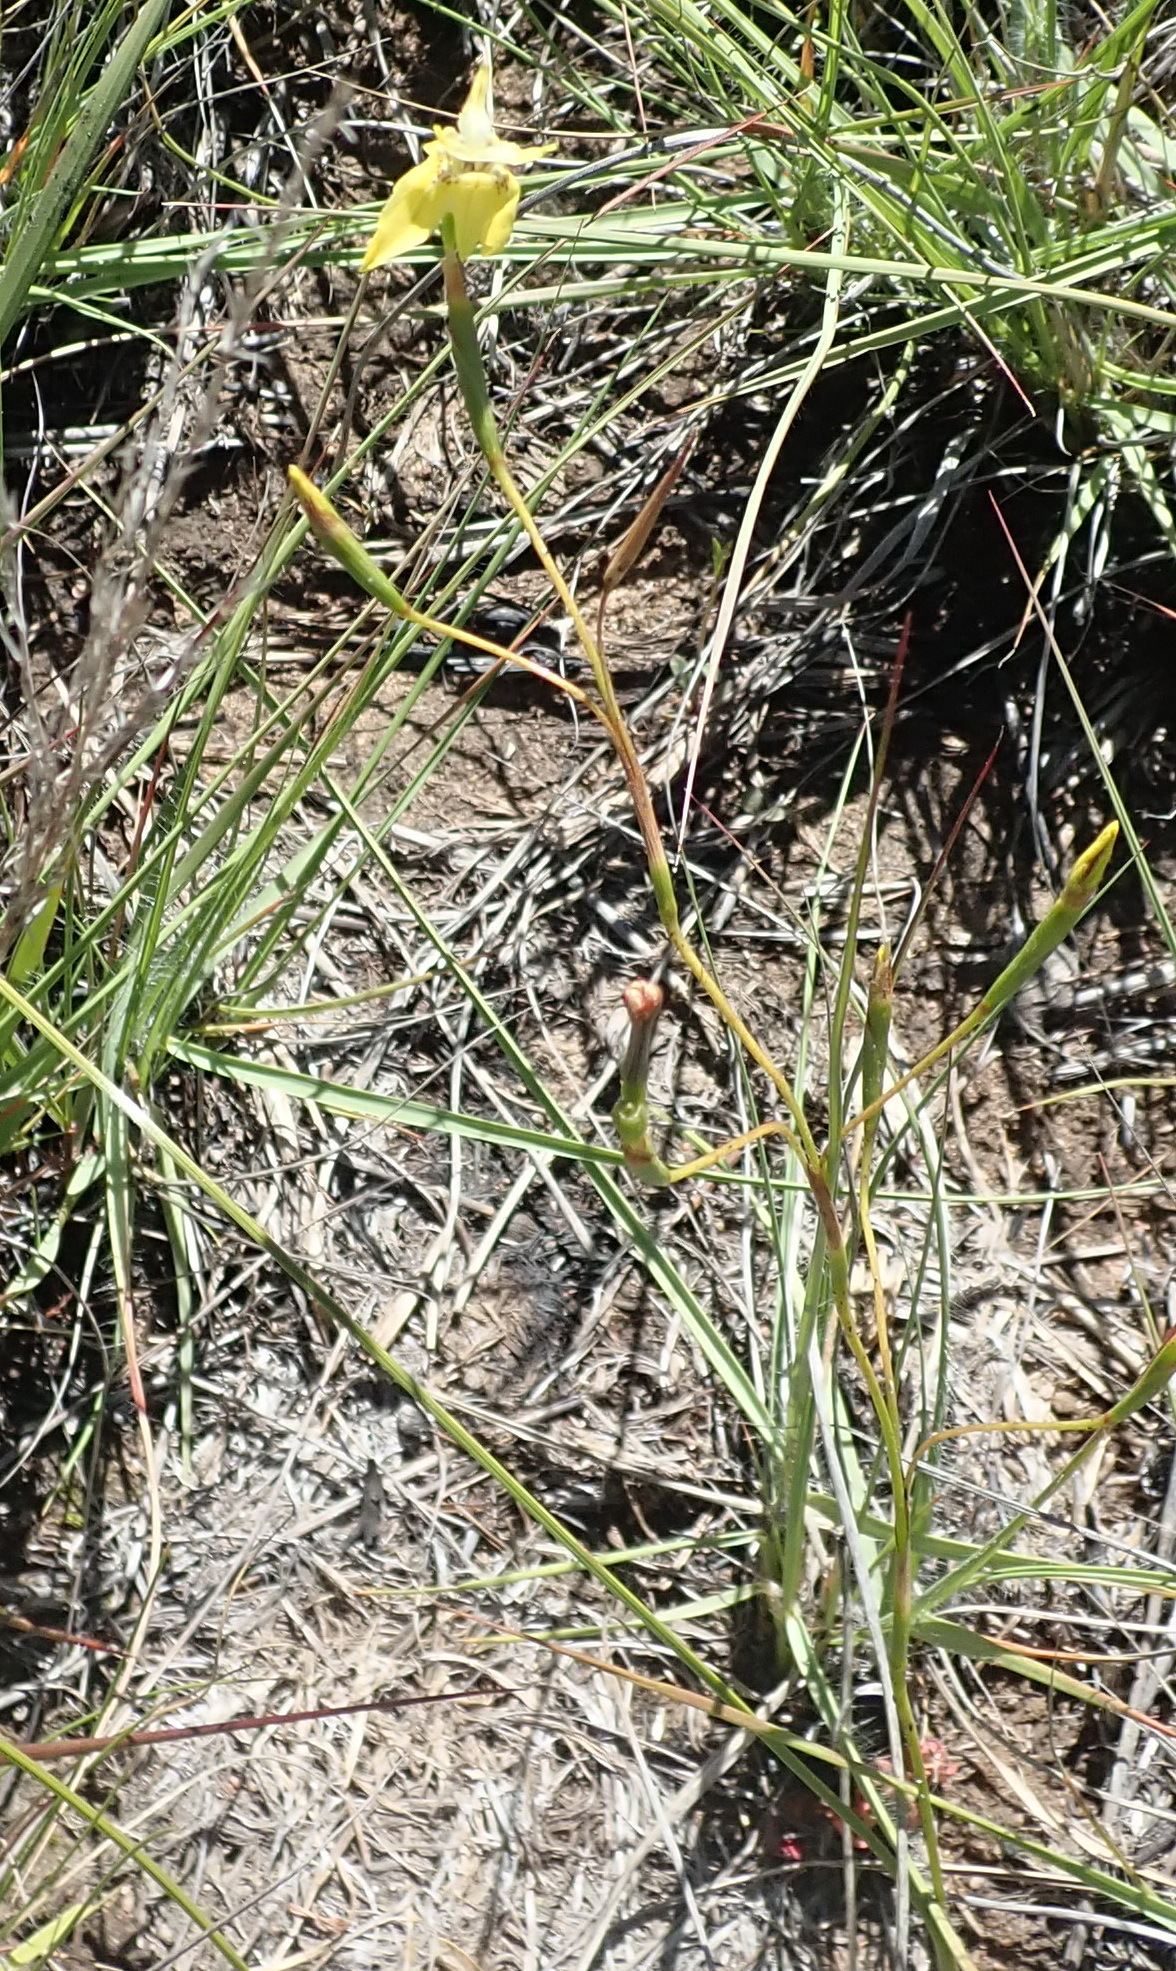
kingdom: Plantae
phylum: Tracheophyta
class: Liliopsida
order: Asparagales
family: Iridaceae
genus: Moraea
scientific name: Moraea inconspicua
